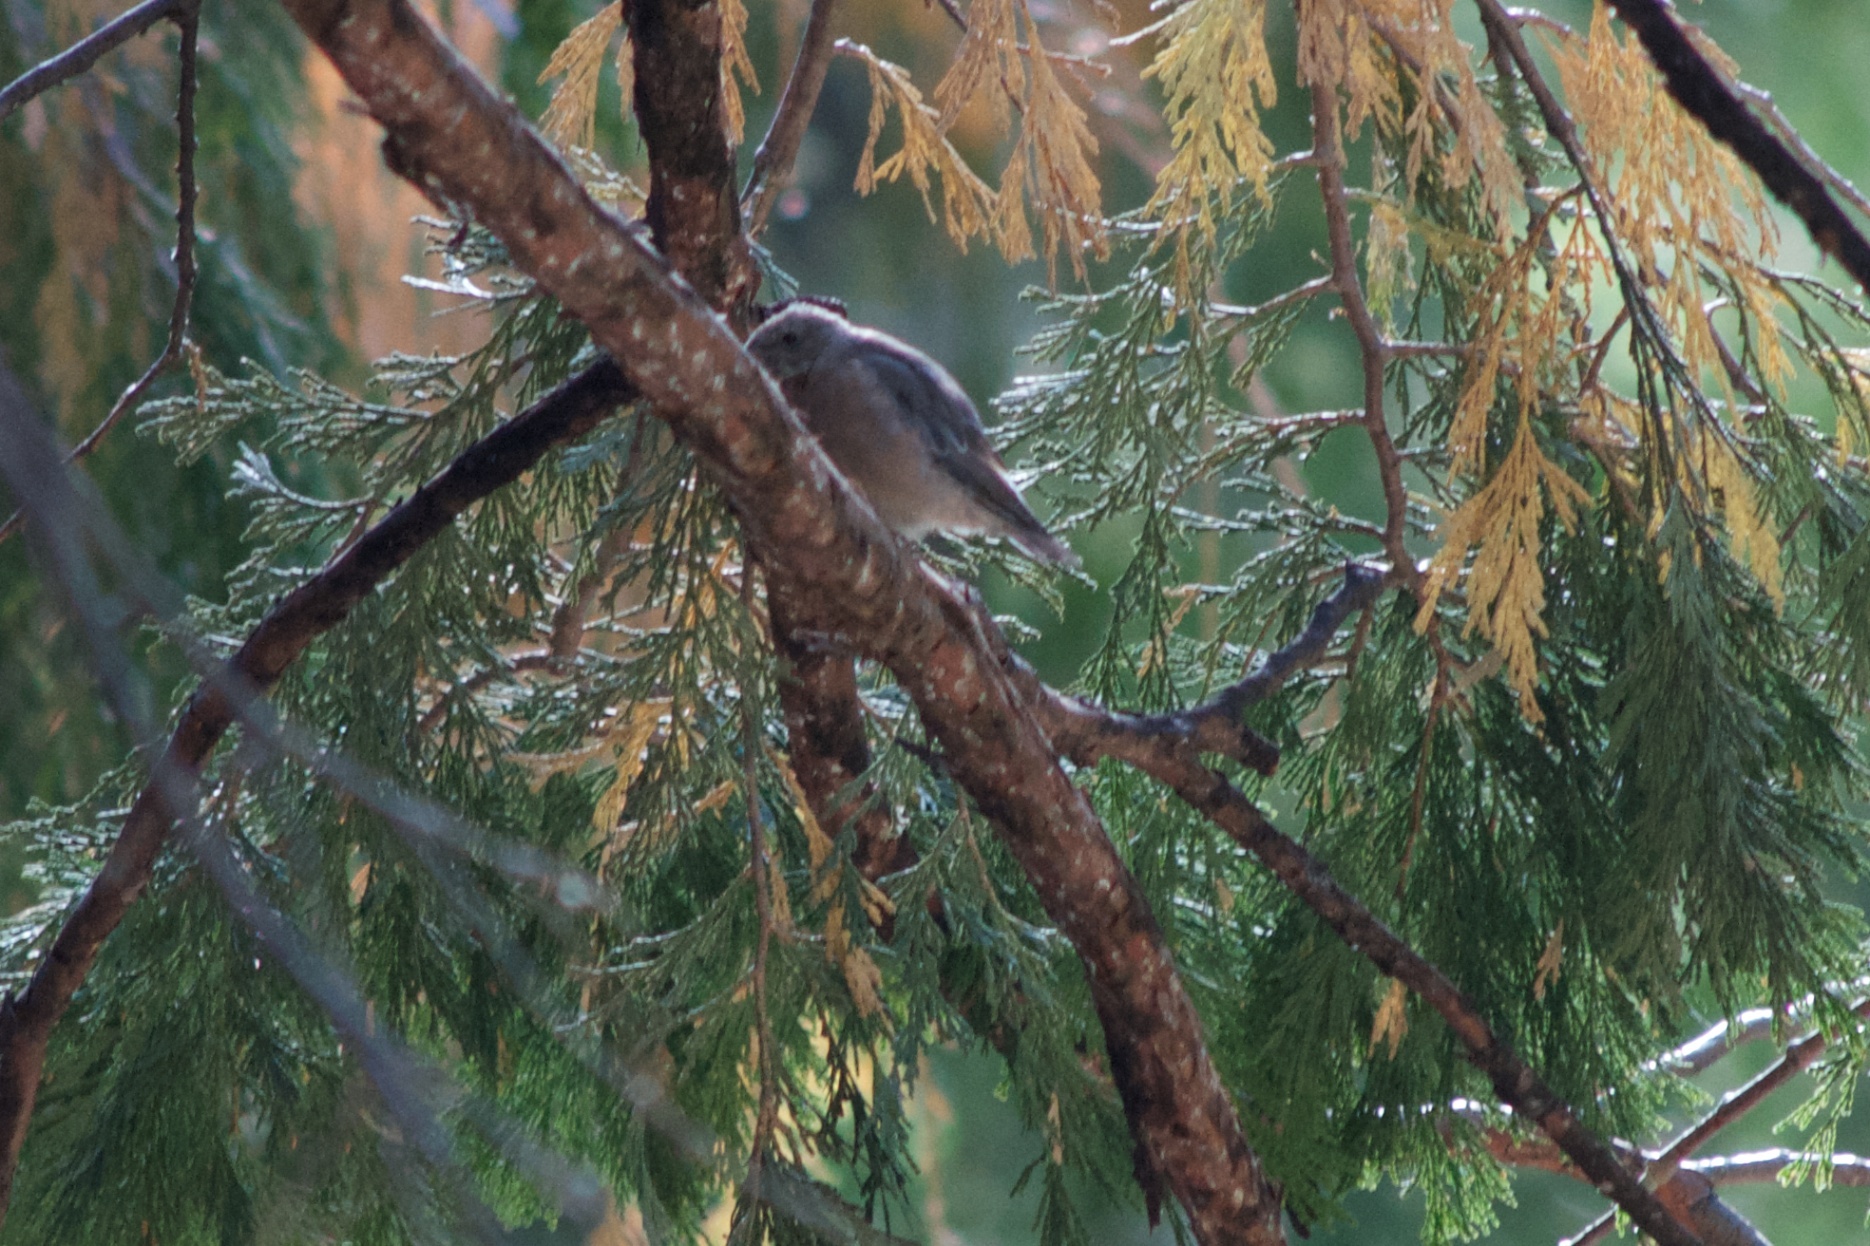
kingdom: Animalia
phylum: Chordata
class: Aves
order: Passeriformes
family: Turdidae
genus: Sialia
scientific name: Sialia mexicana
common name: Western bluebird
